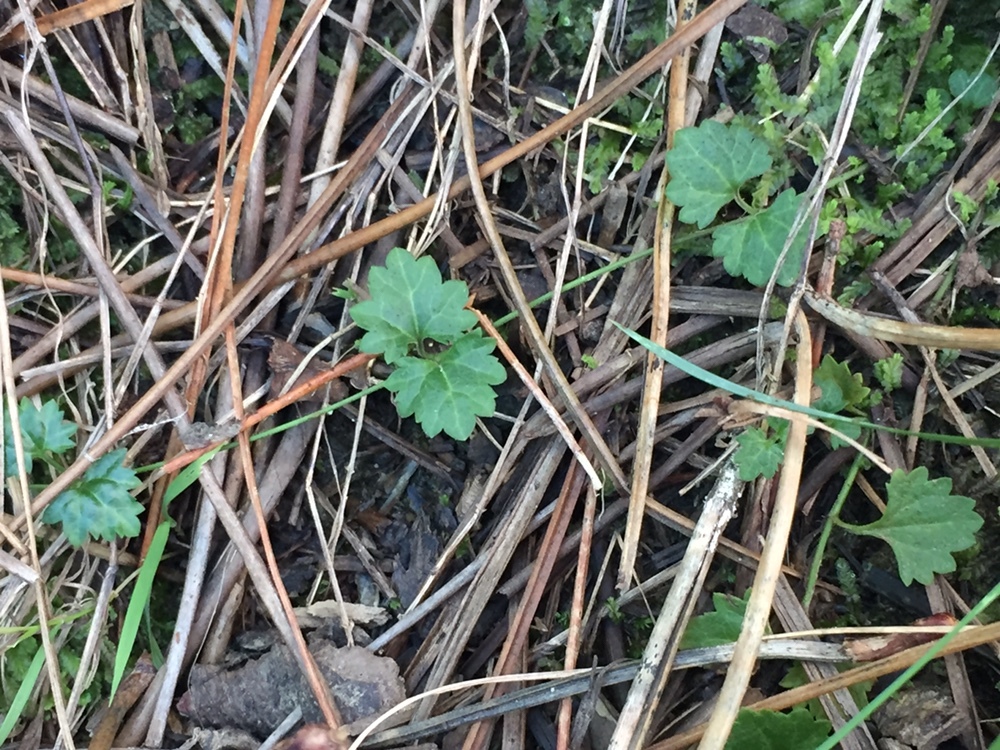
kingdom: Plantae
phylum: Tracheophyta
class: Magnoliopsida
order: Lamiales
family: Plantaginaceae
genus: Veronica
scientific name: Veronica plebeia
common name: Speedwell
